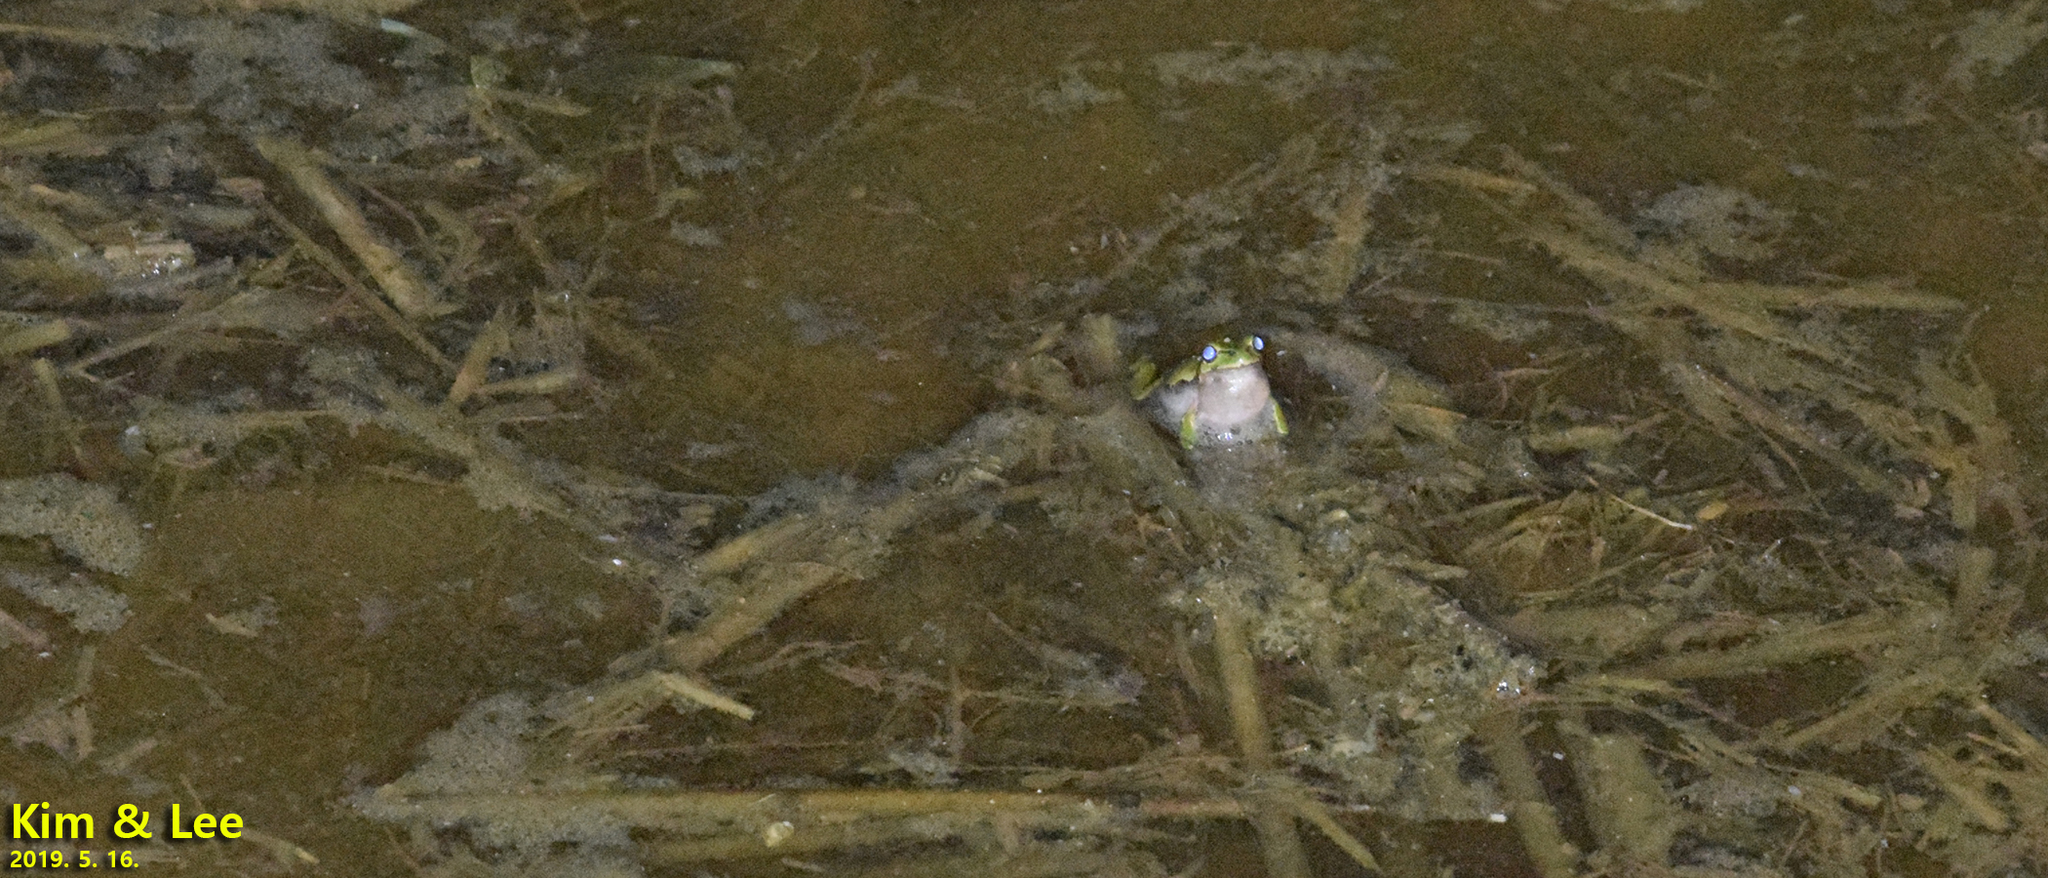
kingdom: Animalia
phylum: Chordata
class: Amphibia
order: Anura
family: Hylidae
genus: Dryophytes
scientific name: Dryophytes japonicus
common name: Japanese treefrog
